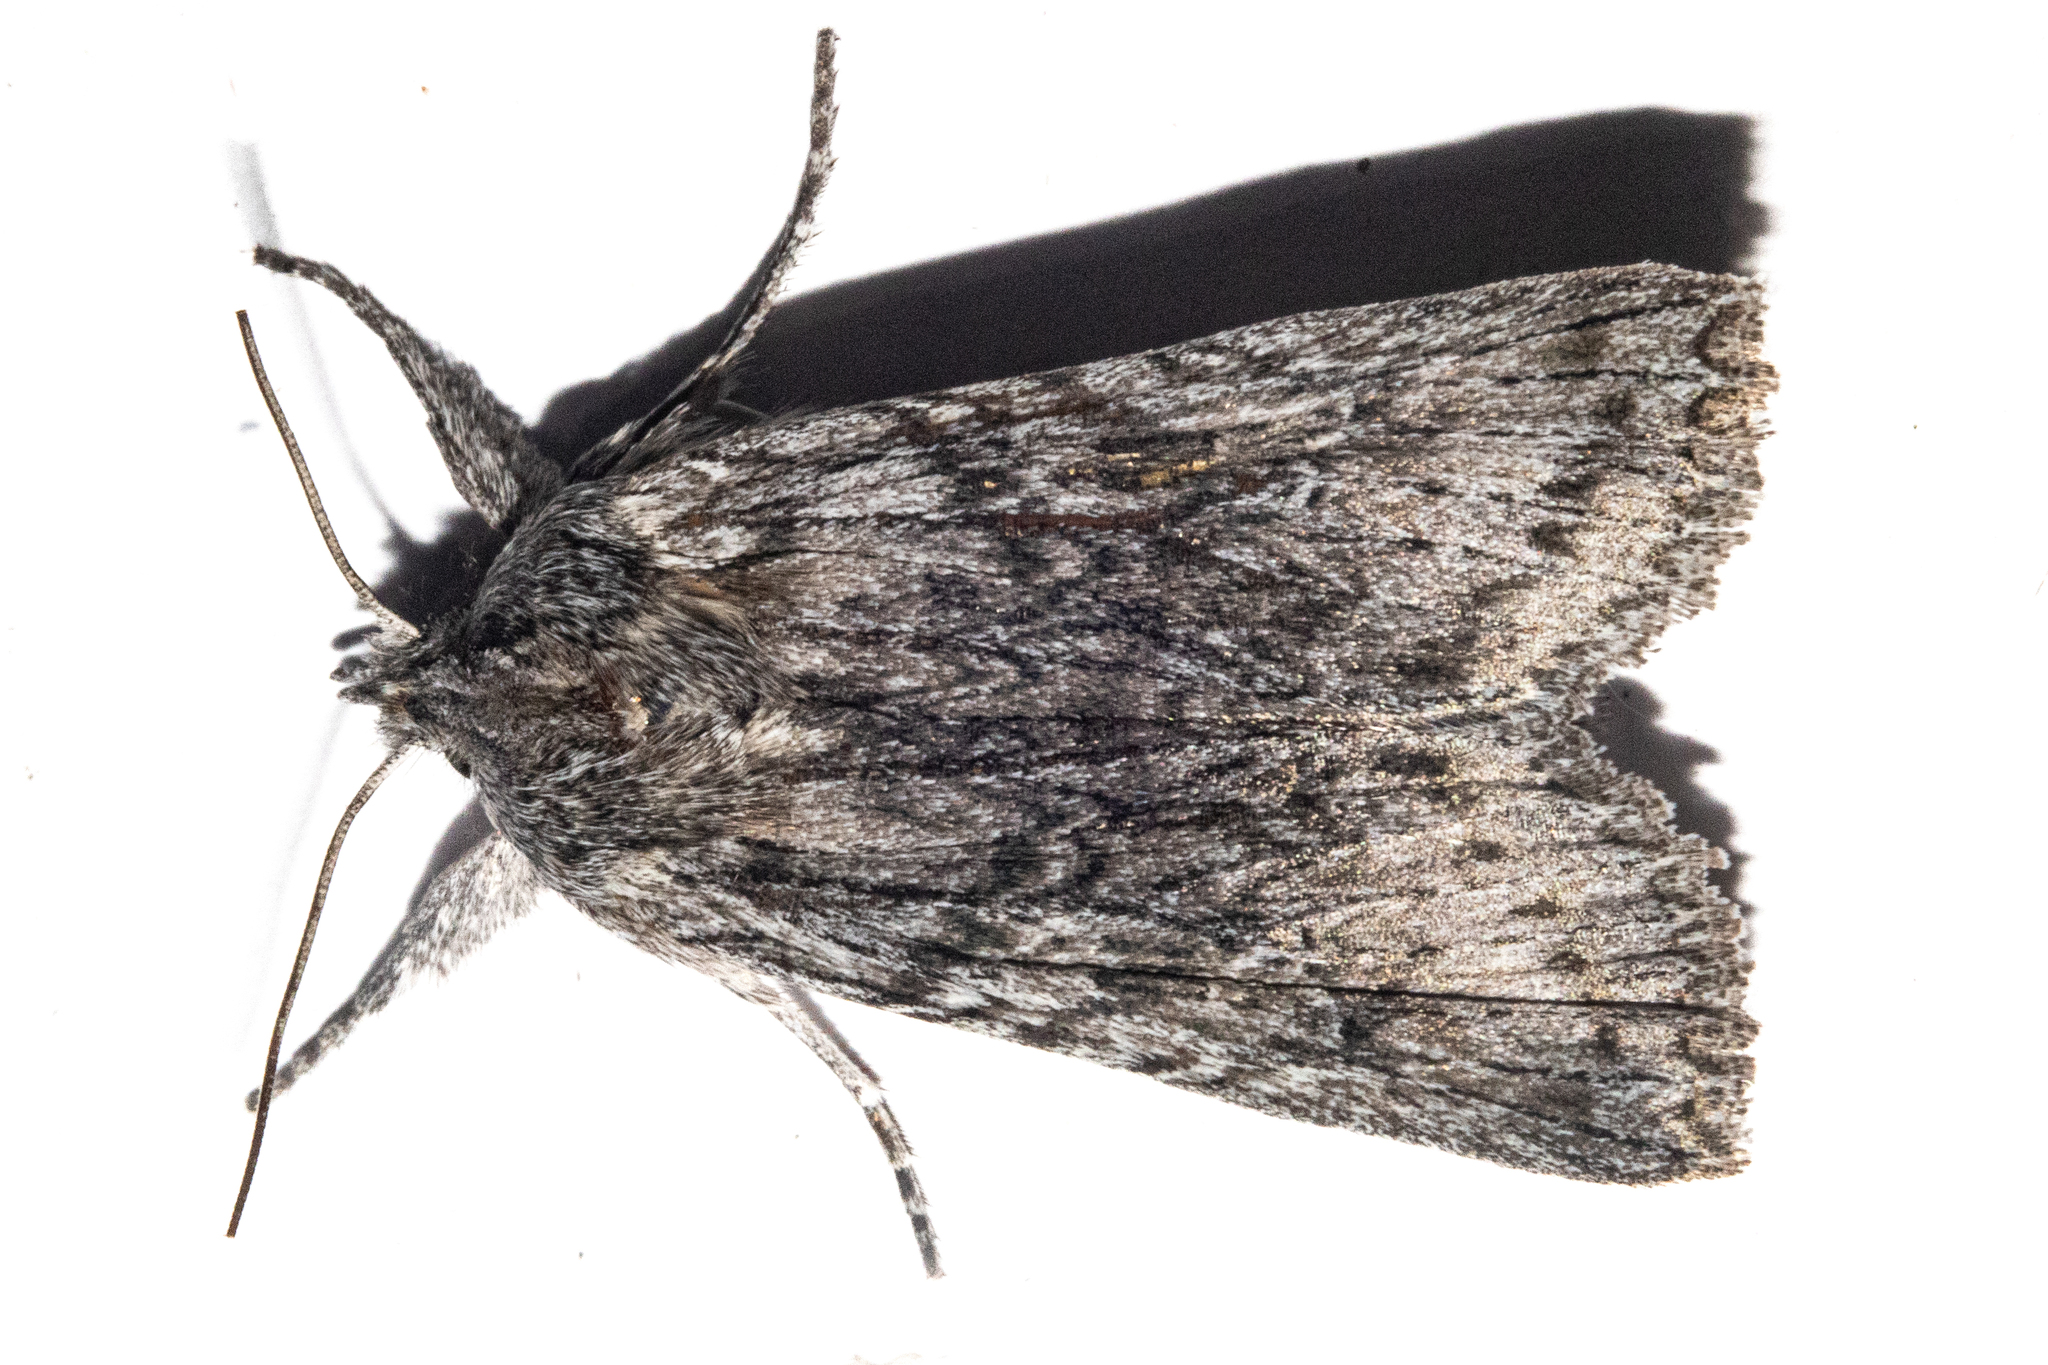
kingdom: Animalia
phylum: Arthropoda
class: Insecta
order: Lepidoptera
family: Noctuidae
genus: Physetica
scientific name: Physetica phricias
